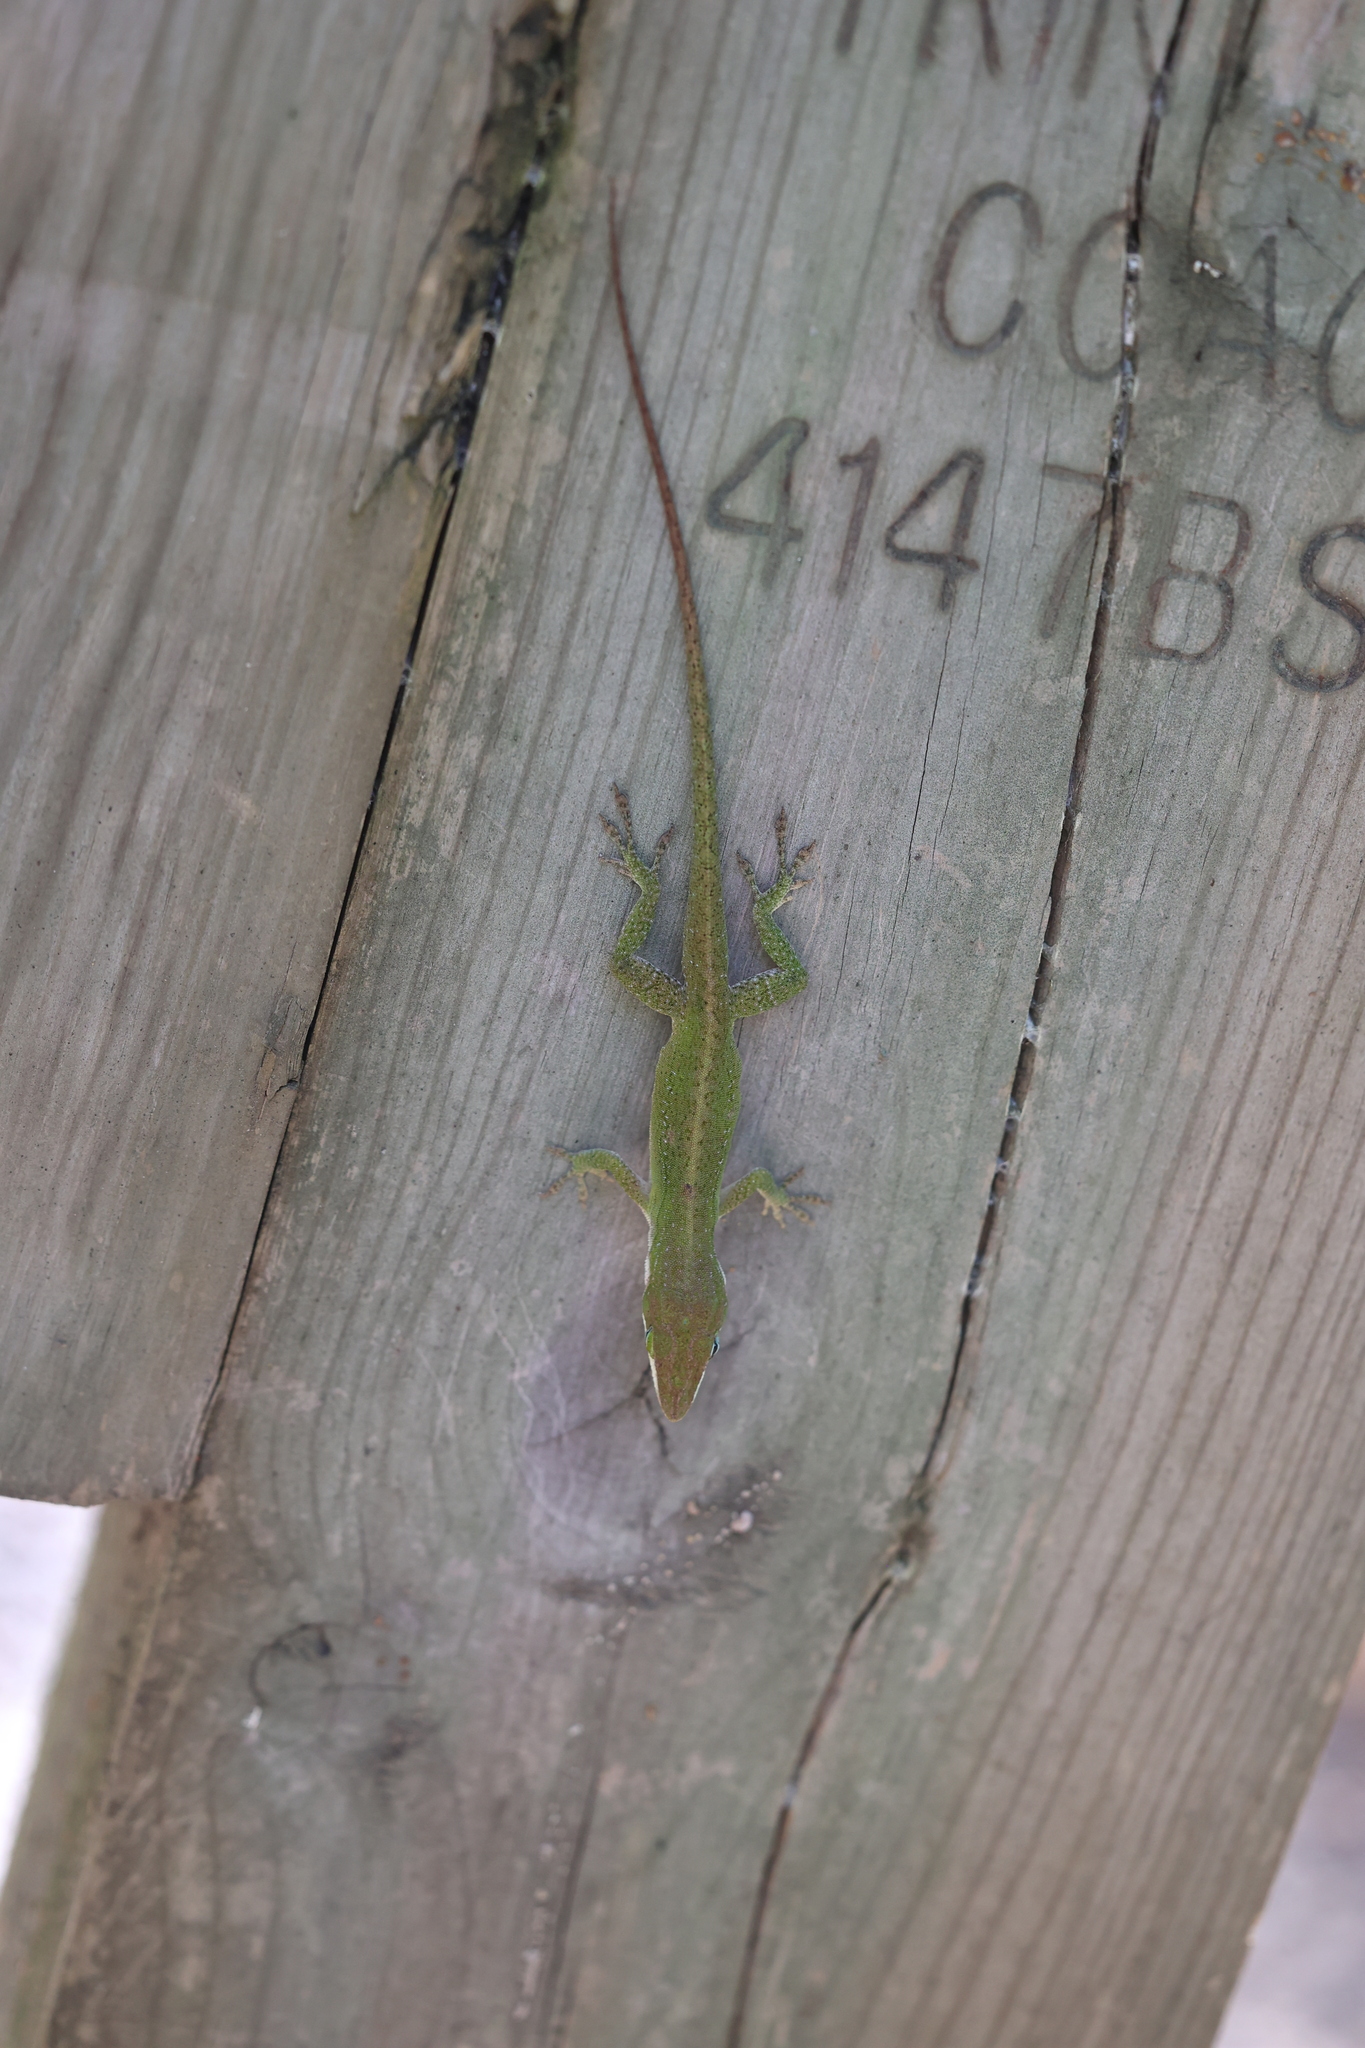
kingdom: Animalia
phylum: Chordata
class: Squamata
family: Dactyloidae
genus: Anolis
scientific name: Anolis carolinensis
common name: Green anole
